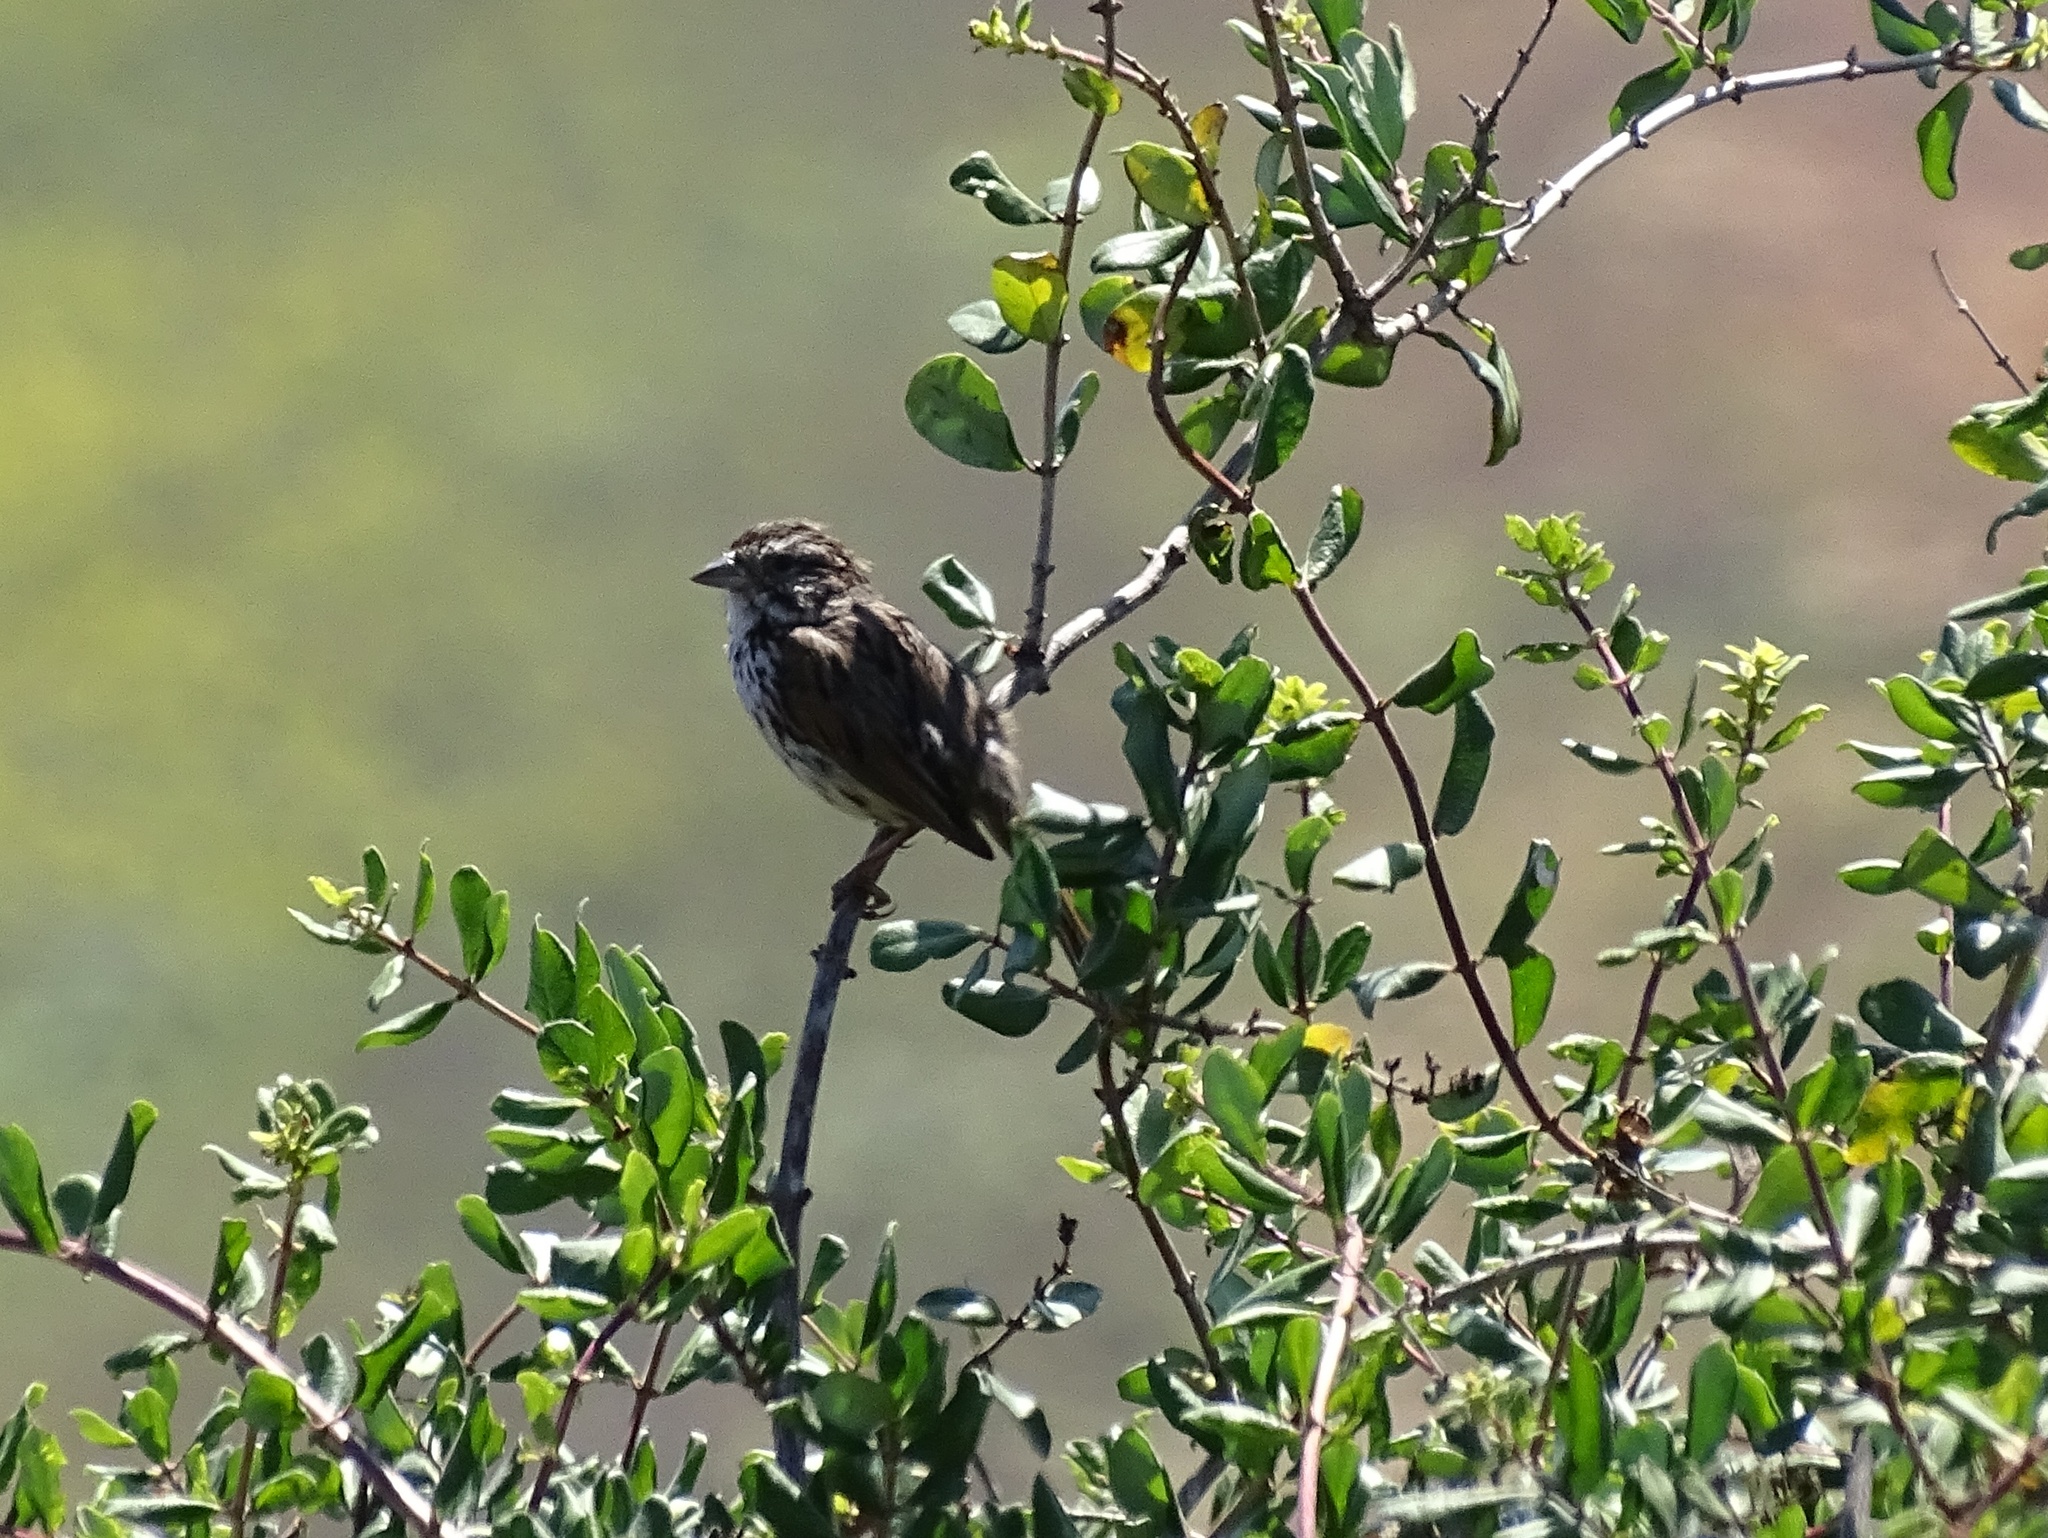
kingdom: Animalia
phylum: Chordata
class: Aves
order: Passeriformes
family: Passerellidae
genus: Melospiza
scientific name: Melospiza melodia
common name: Song sparrow
